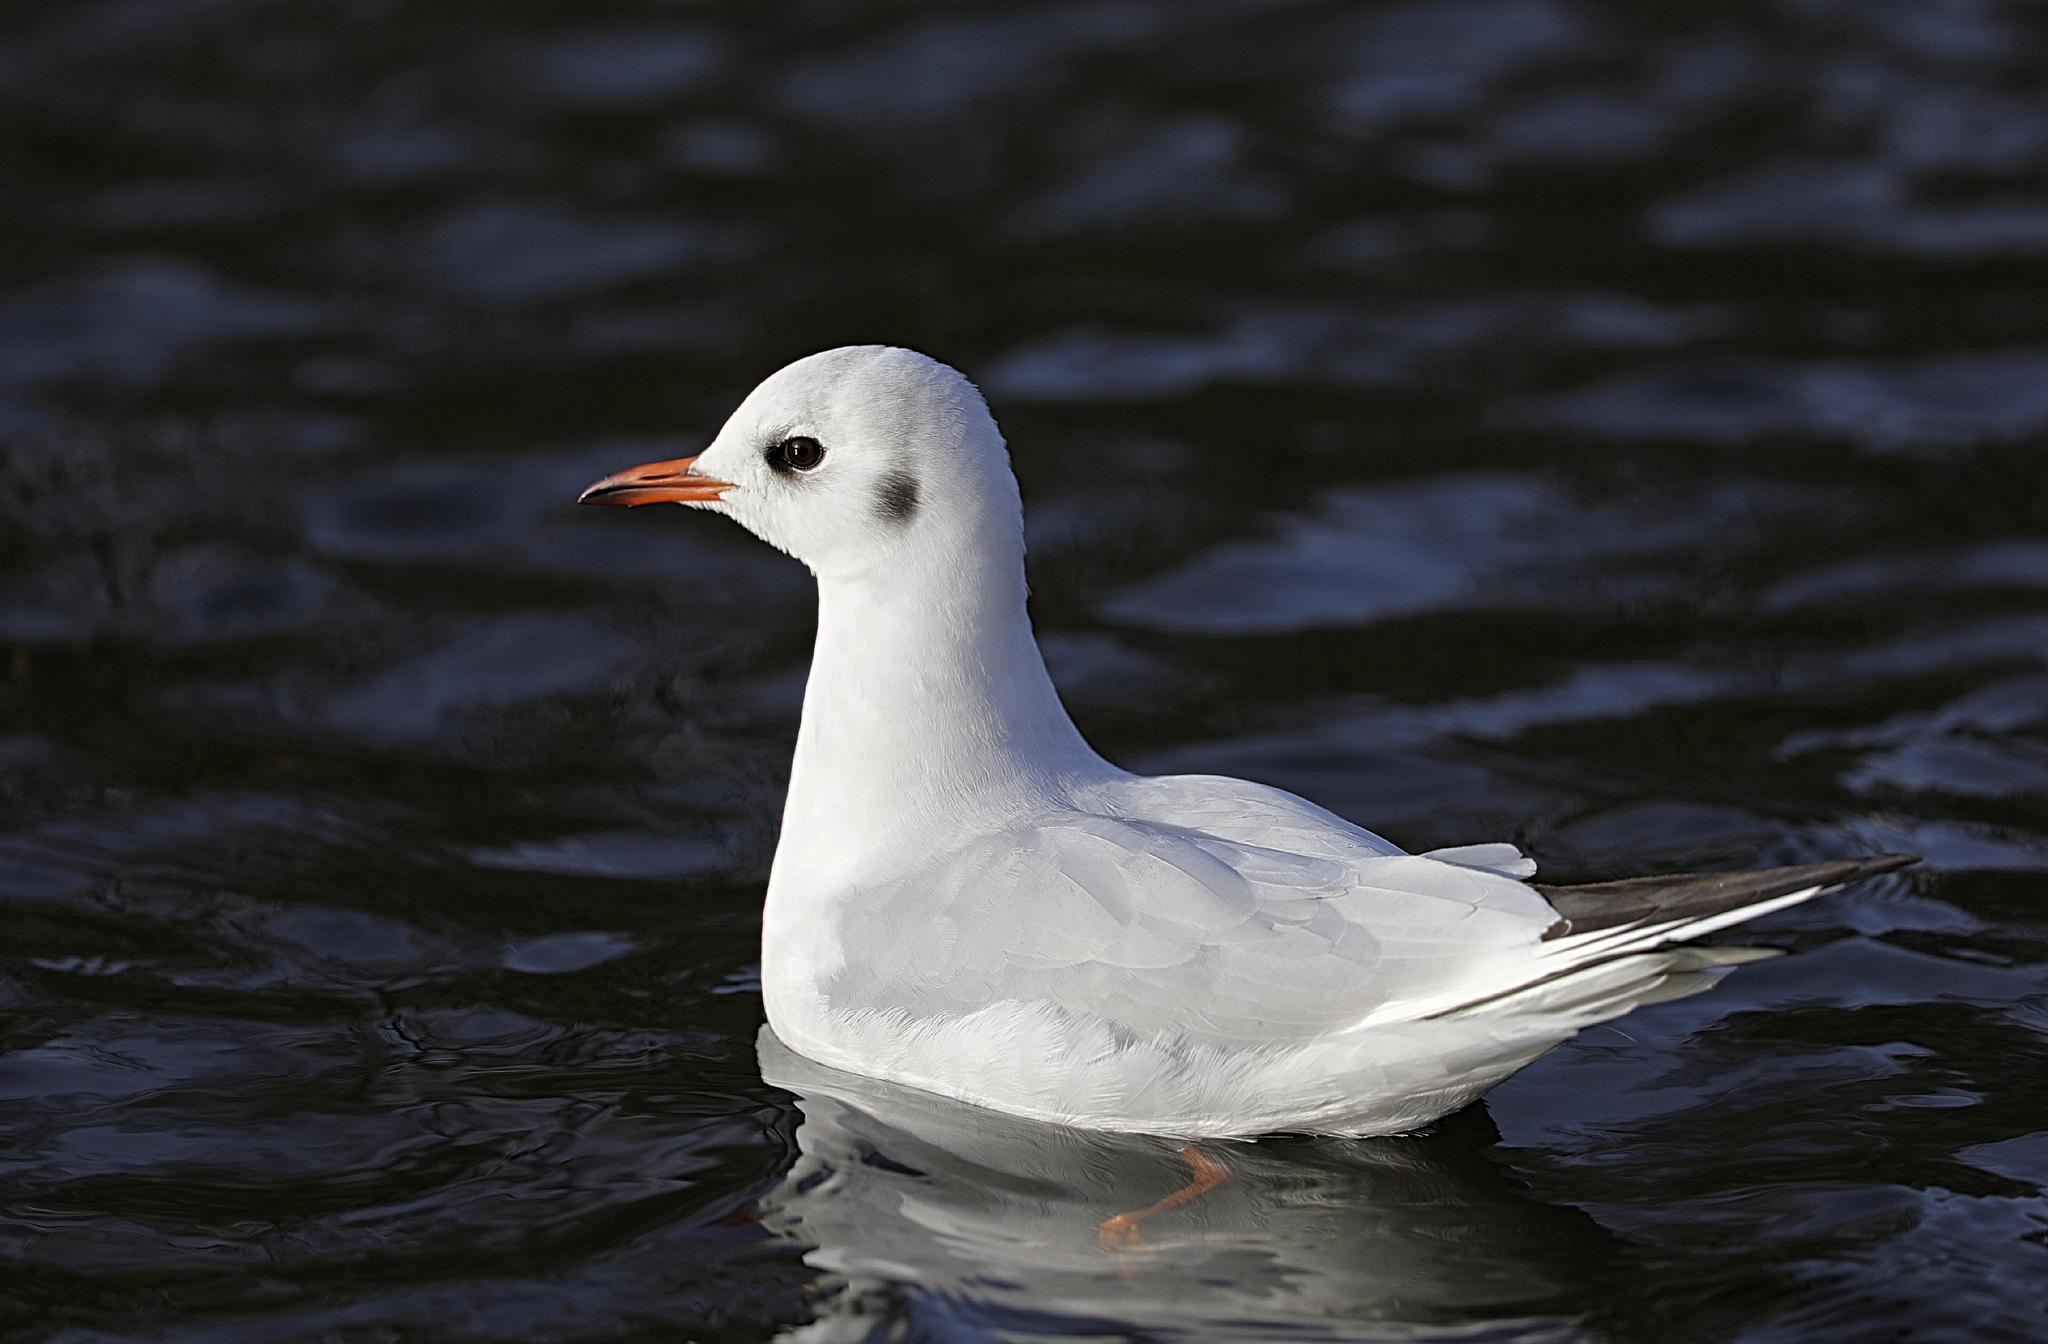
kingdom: Animalia
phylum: Chordata
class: Aves
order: Charadriiformes
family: Laridae
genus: Chroicocephalus
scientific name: Chroicocephalus ridibundus
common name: Black-headed gull
